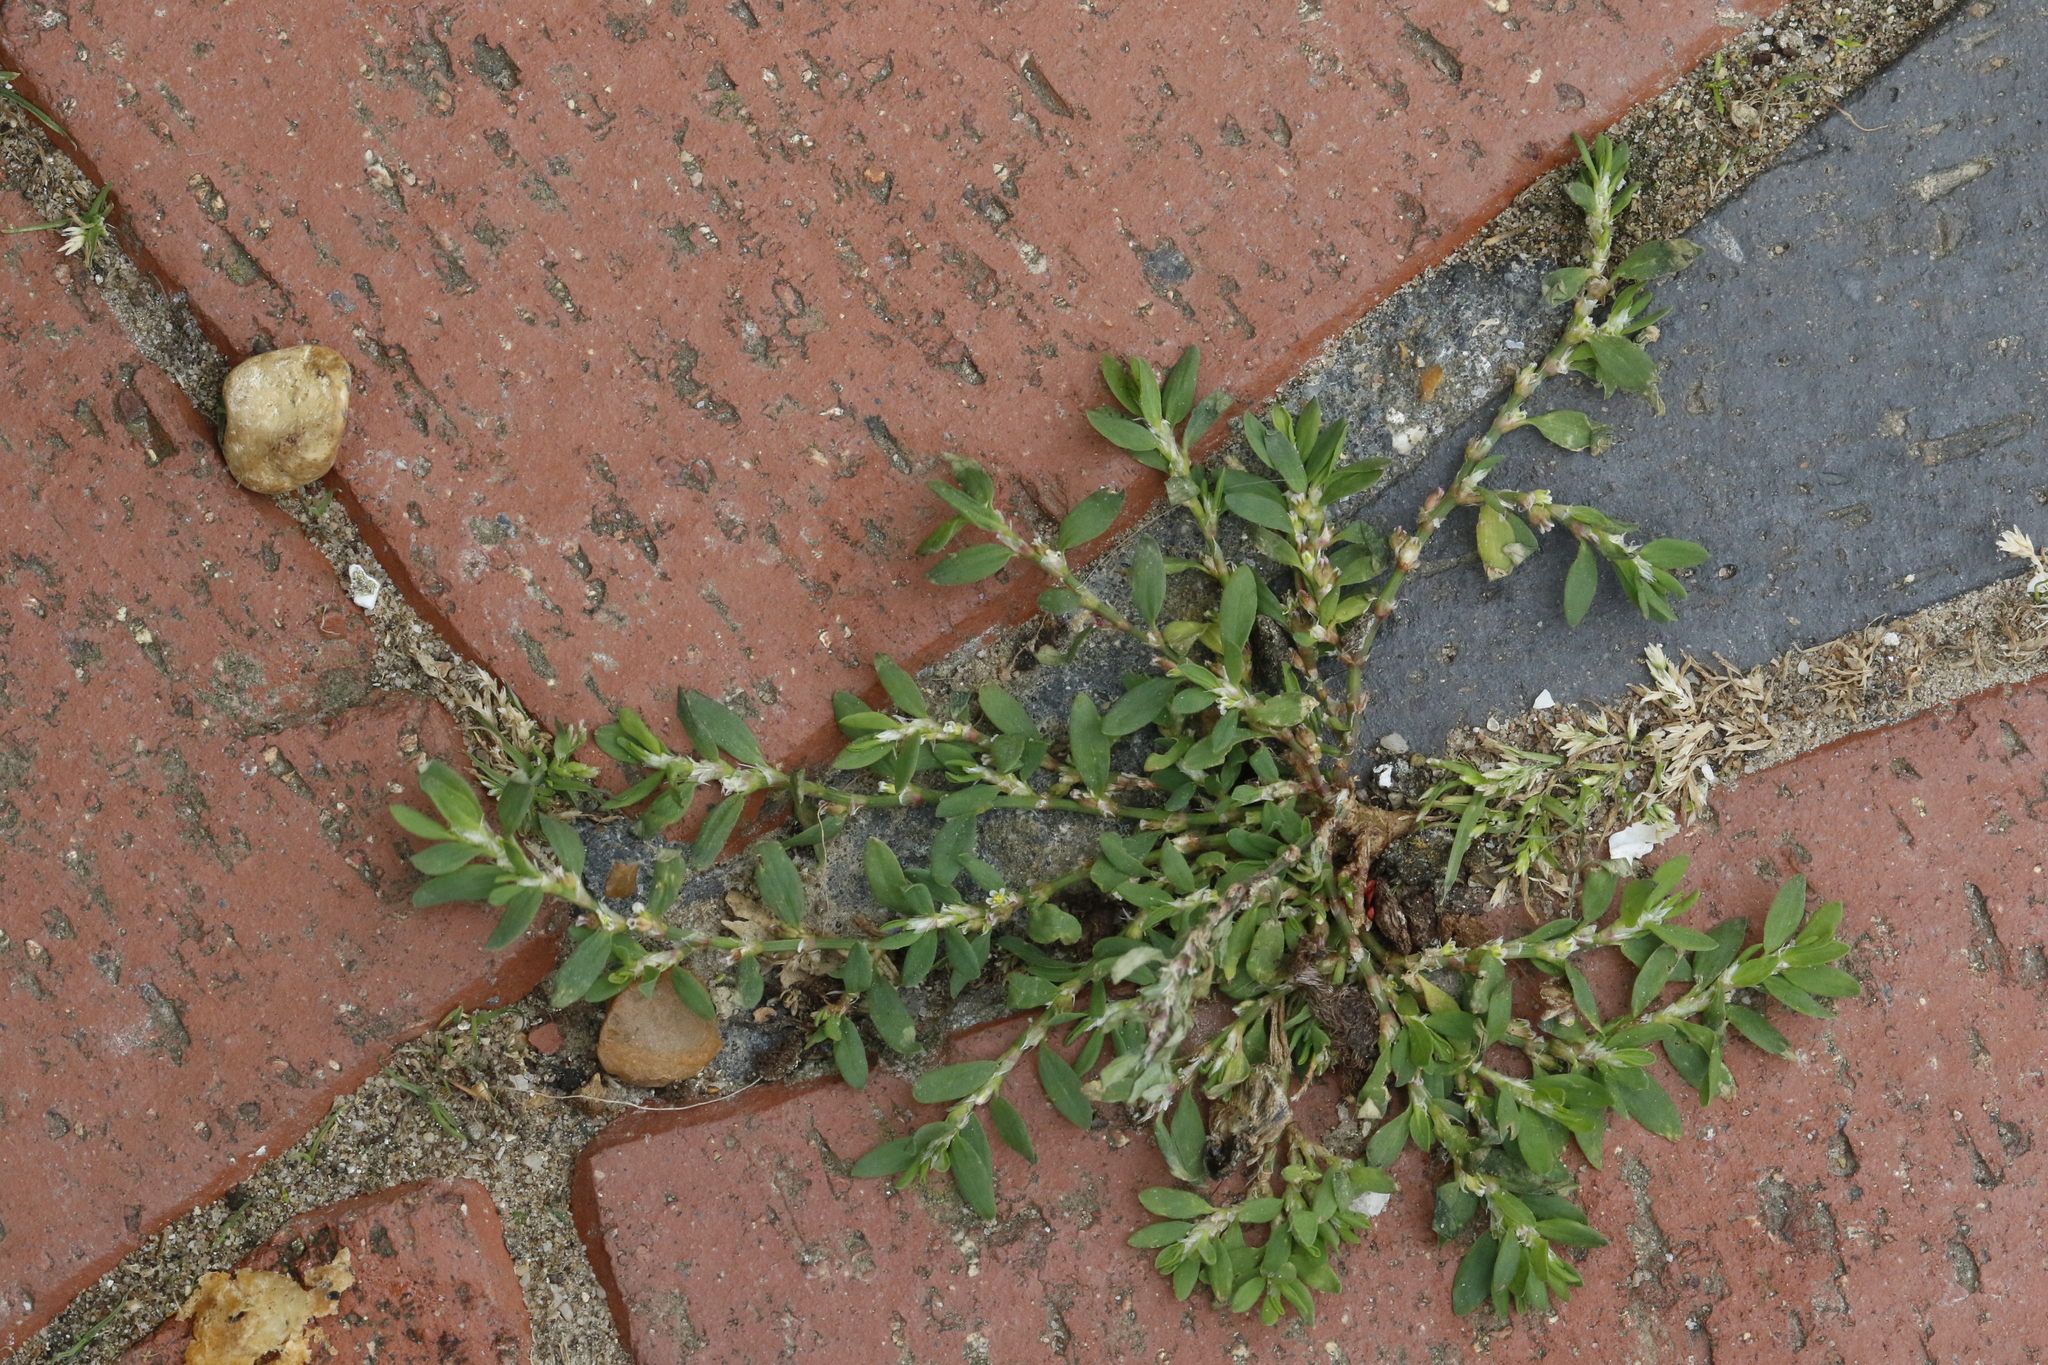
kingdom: Plantae
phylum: Tracheophyta
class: Magnoliopsida
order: Caryophyllales
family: Polygonaceae
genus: Polygonum
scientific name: Polygonum aviculare
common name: Prostrate knotweed
